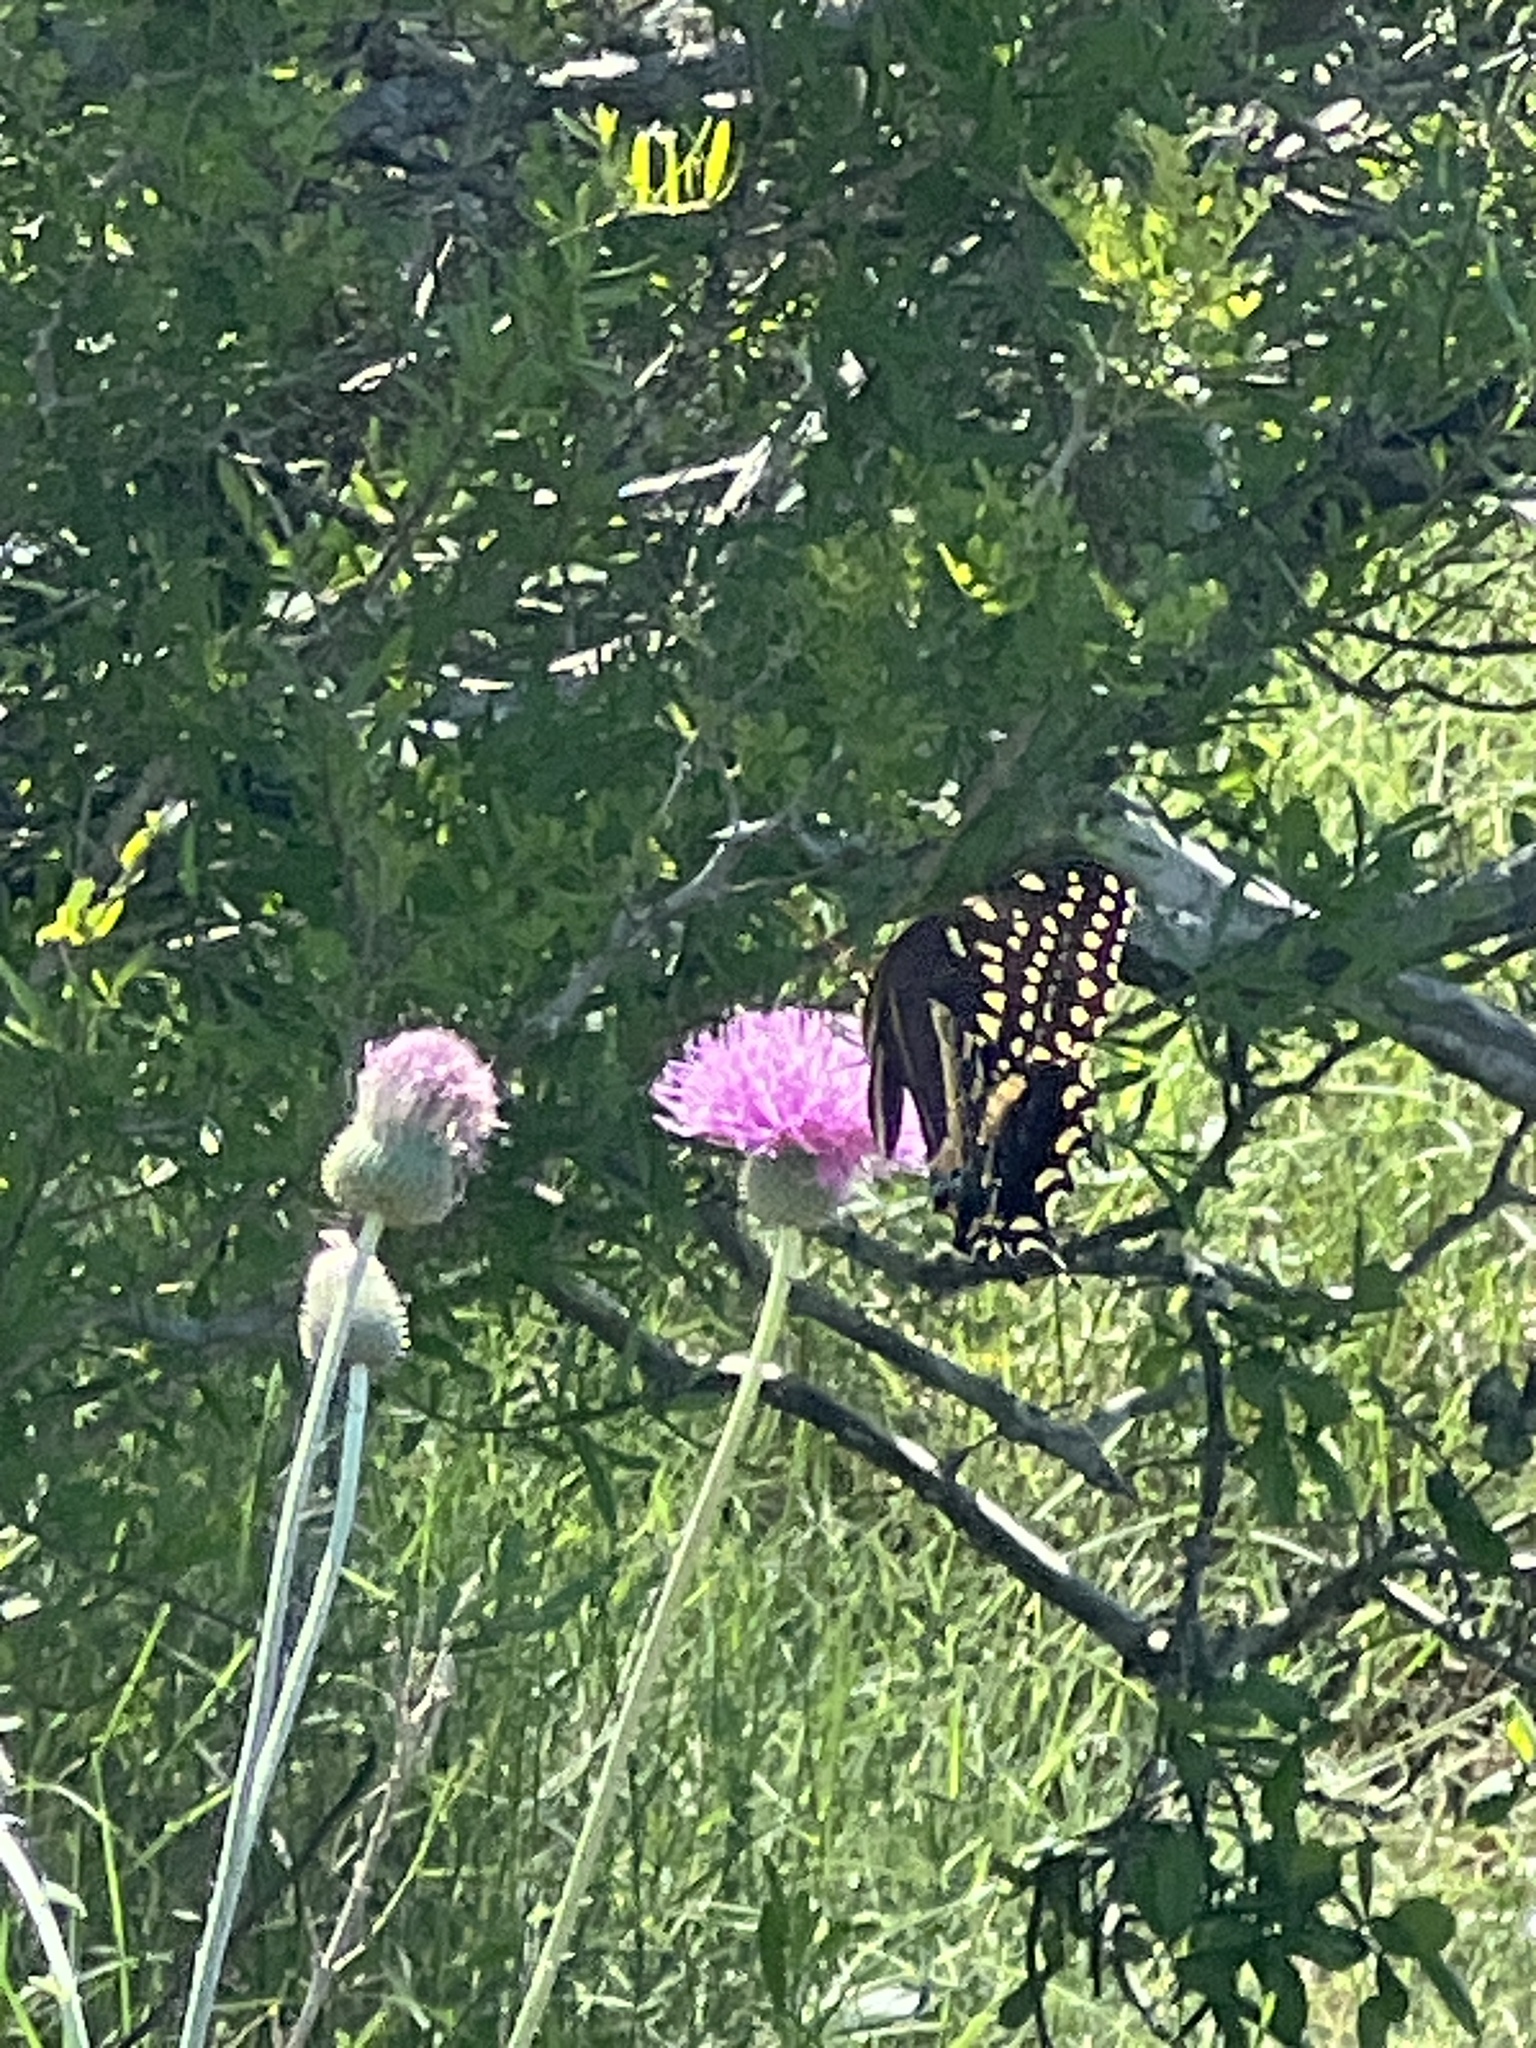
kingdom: Animalia
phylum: Arthropoda
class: Insecta
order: Lepidoptera
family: Papilionidae
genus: Papilio
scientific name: Papilio palamedes
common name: Palamedes swallowtail
